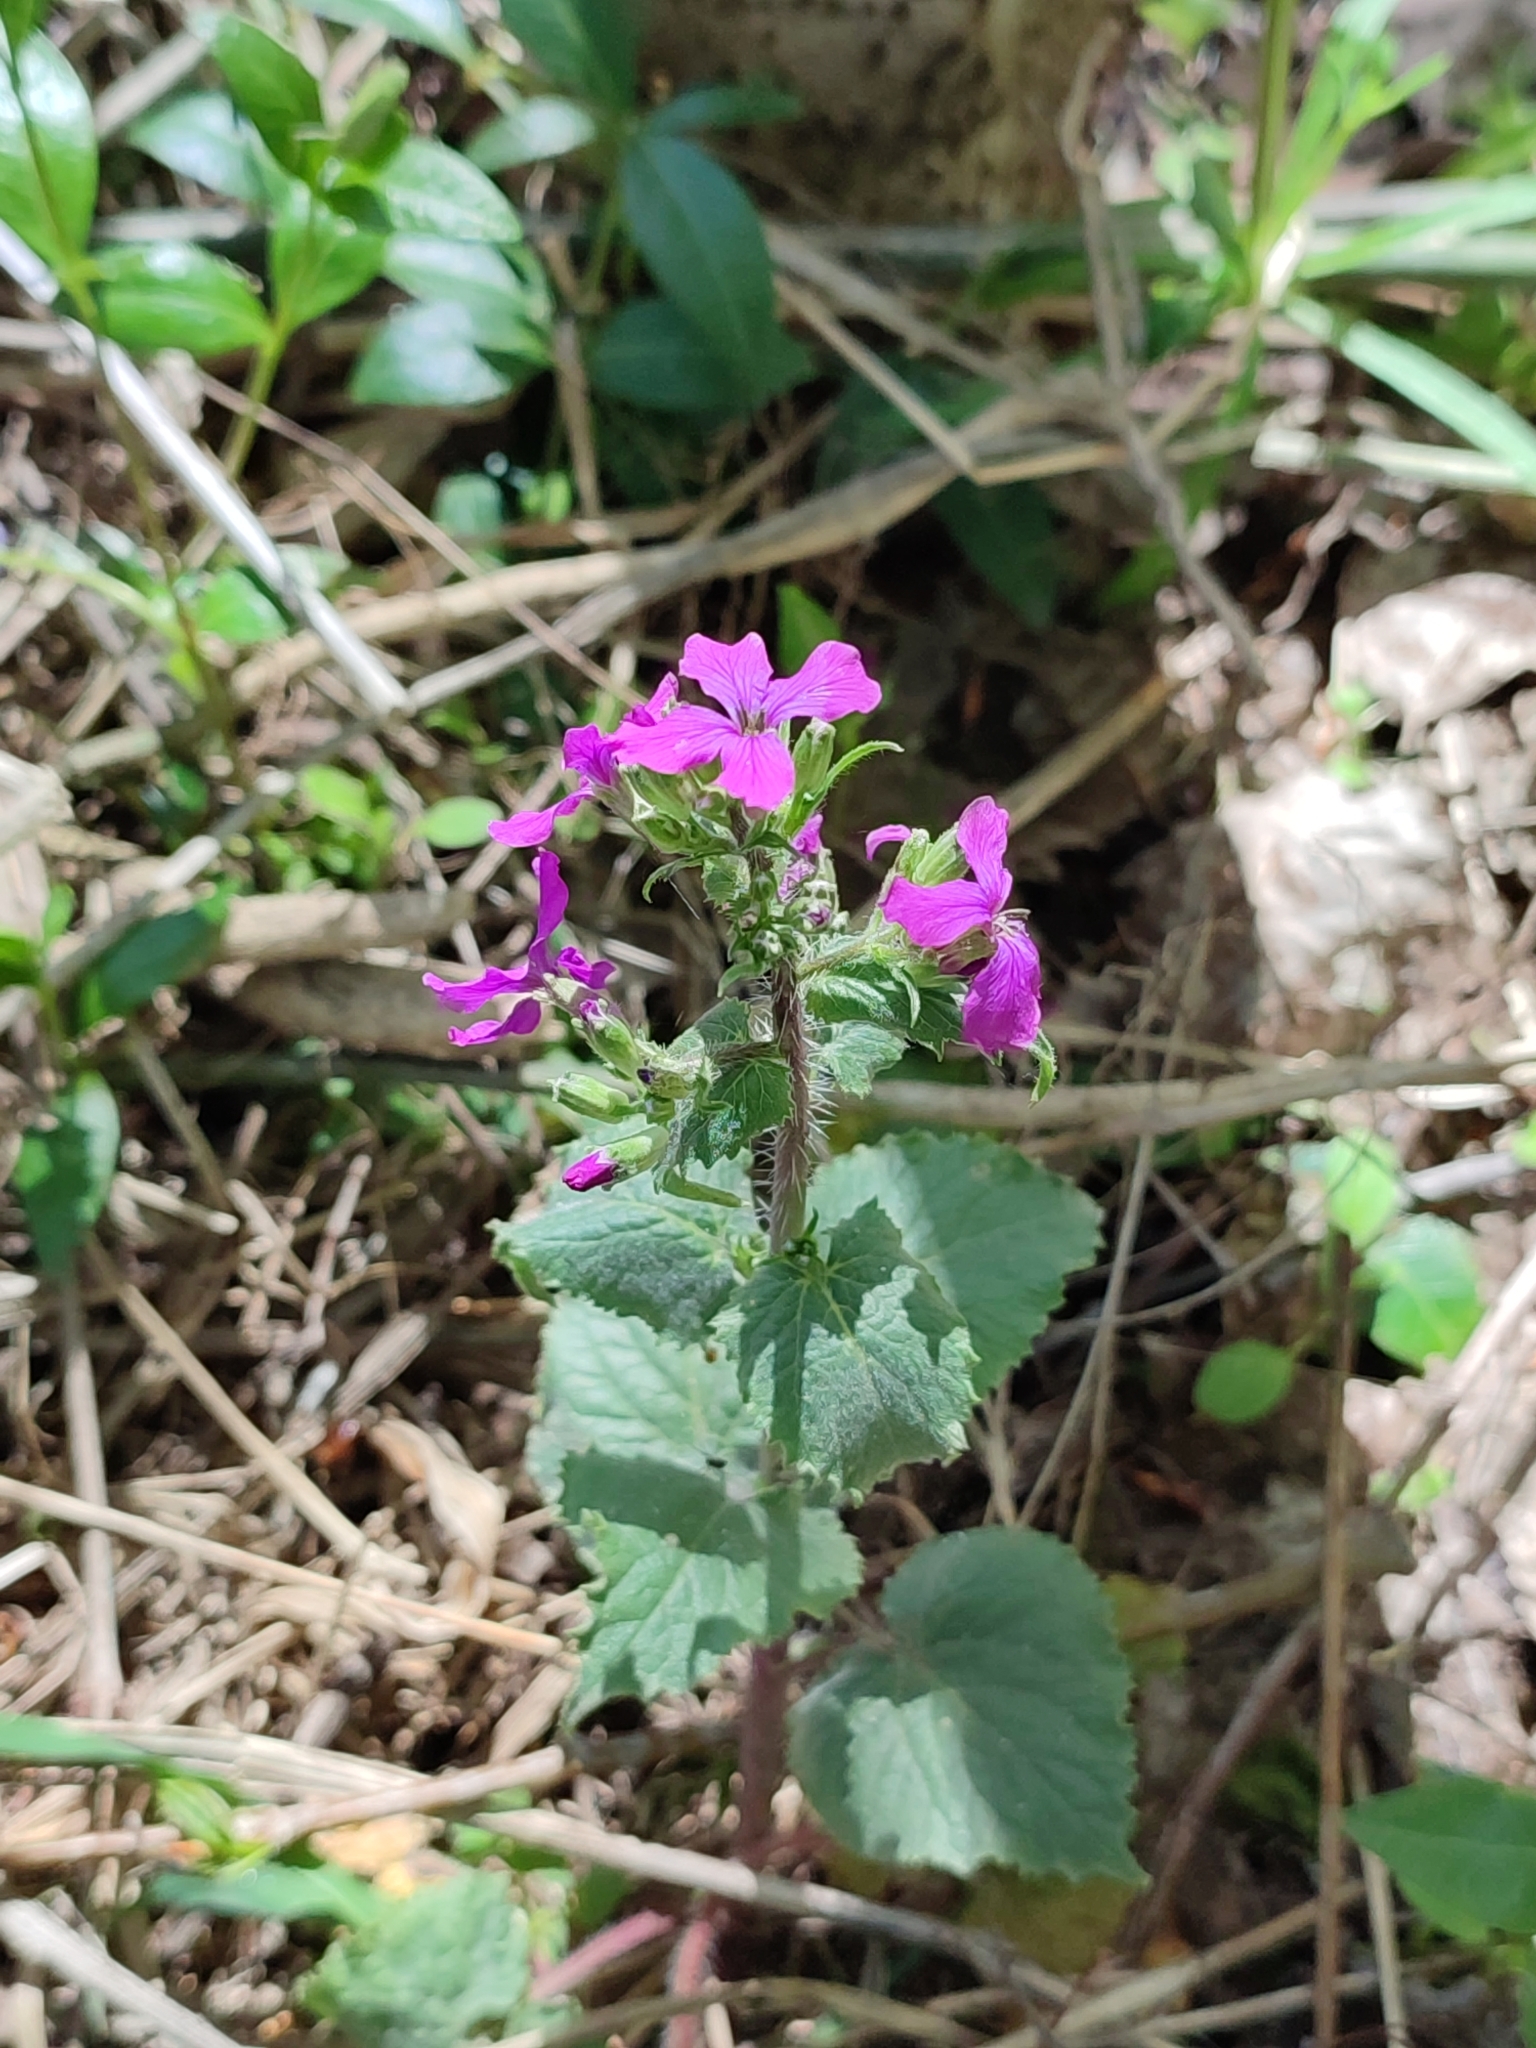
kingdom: Plantae
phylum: Tracheophyta
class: Magnoliopsida
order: Brassicales
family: Brassicaceae
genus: Lunaria
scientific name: Lunaria annua
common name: Honesty
